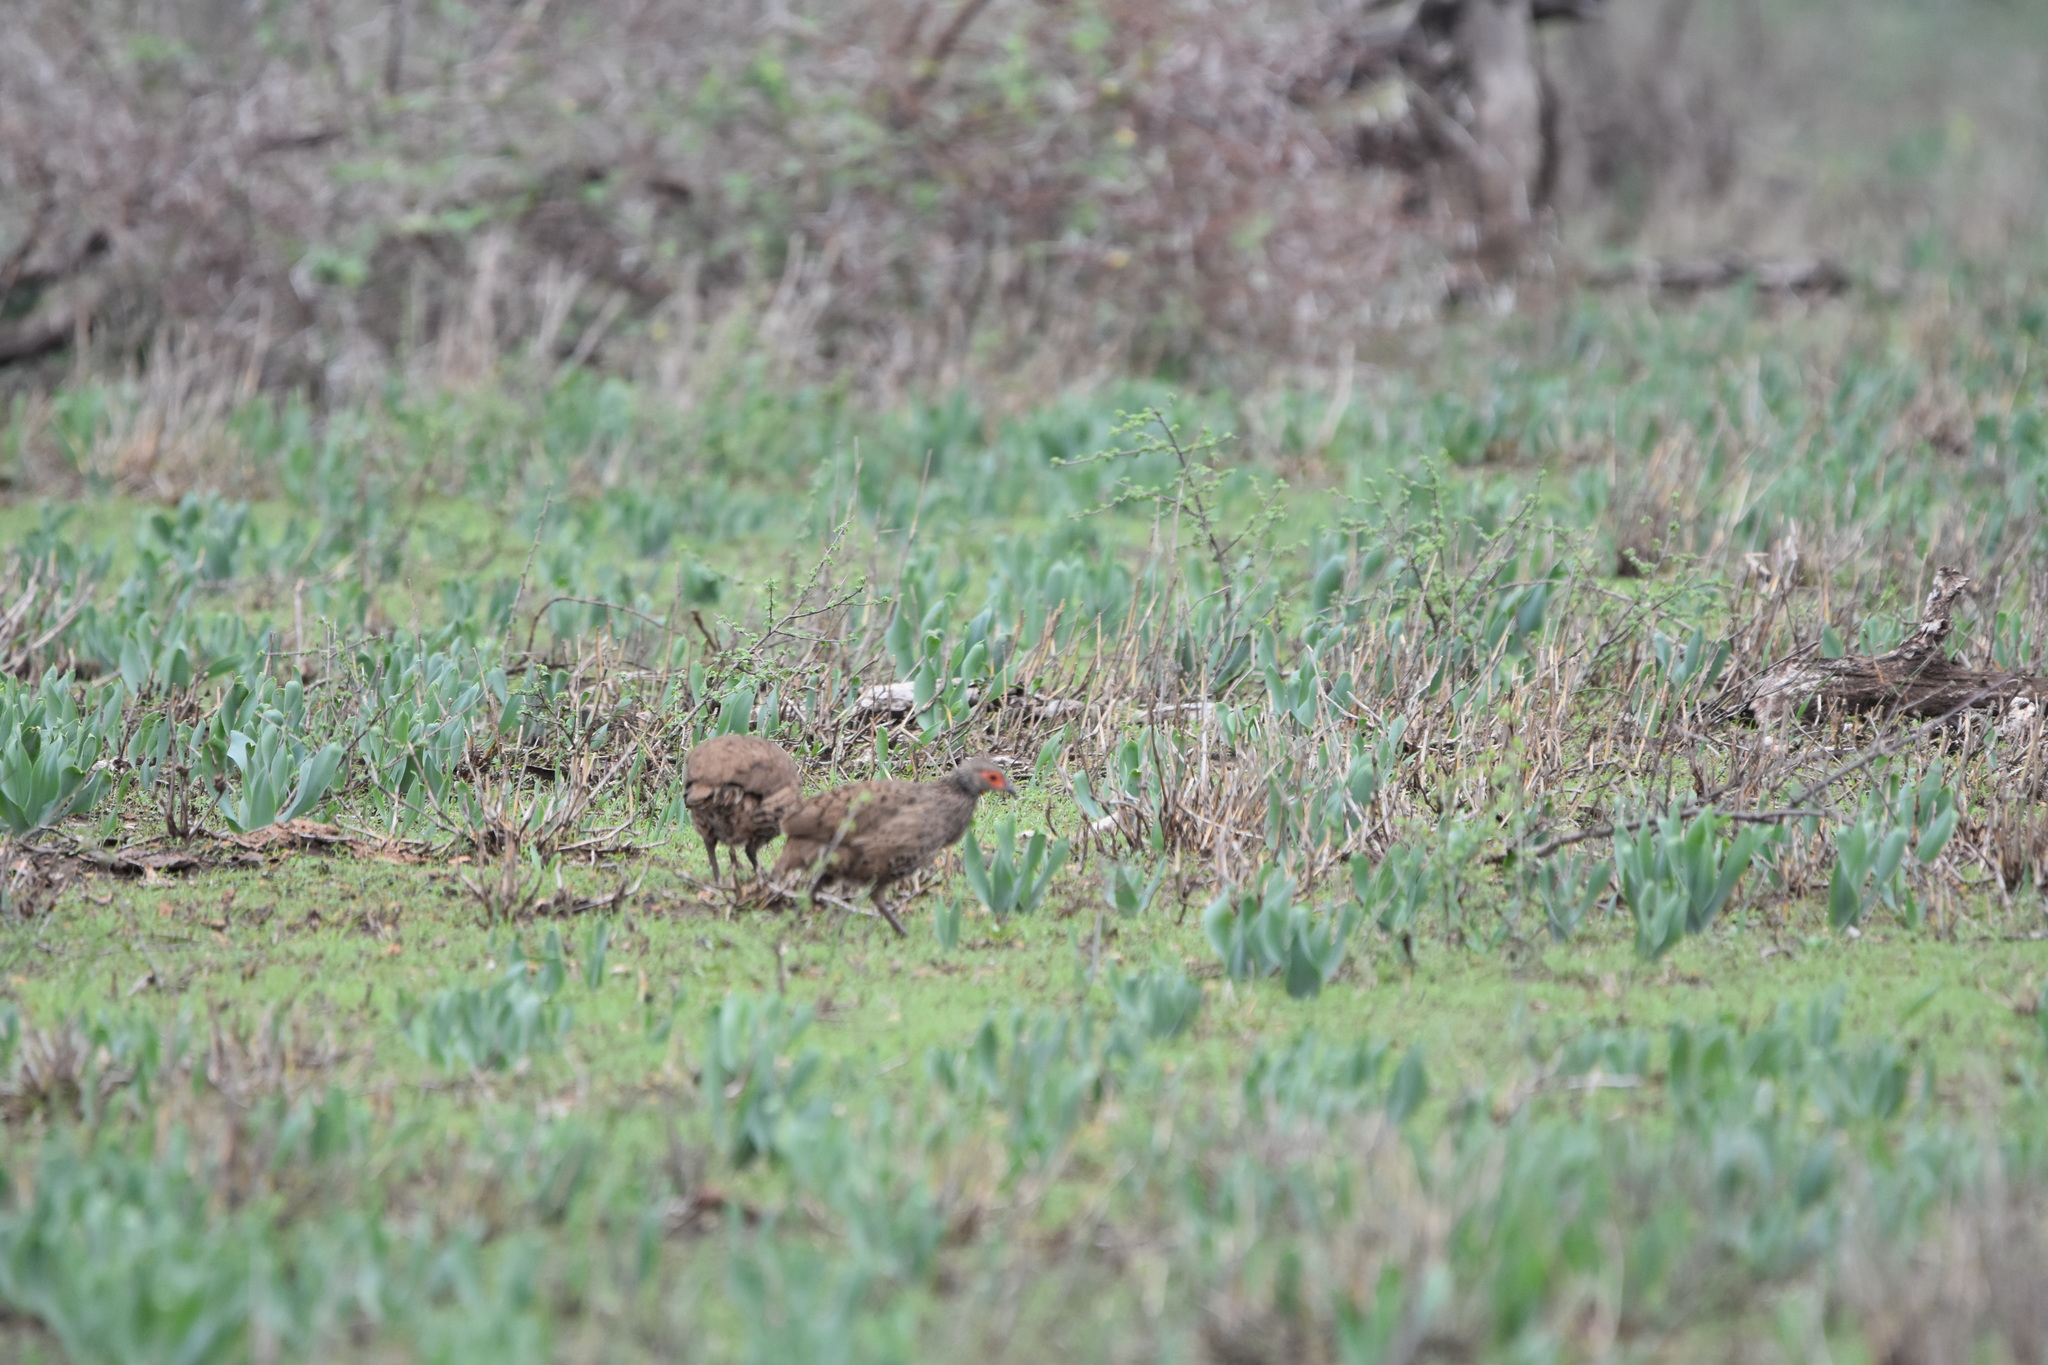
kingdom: Animalia
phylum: Chordata
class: Aves
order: Galliformes
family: Phasianidae
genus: Pternistis
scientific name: Pternistis swainsonii
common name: Swainson's spurfowl
